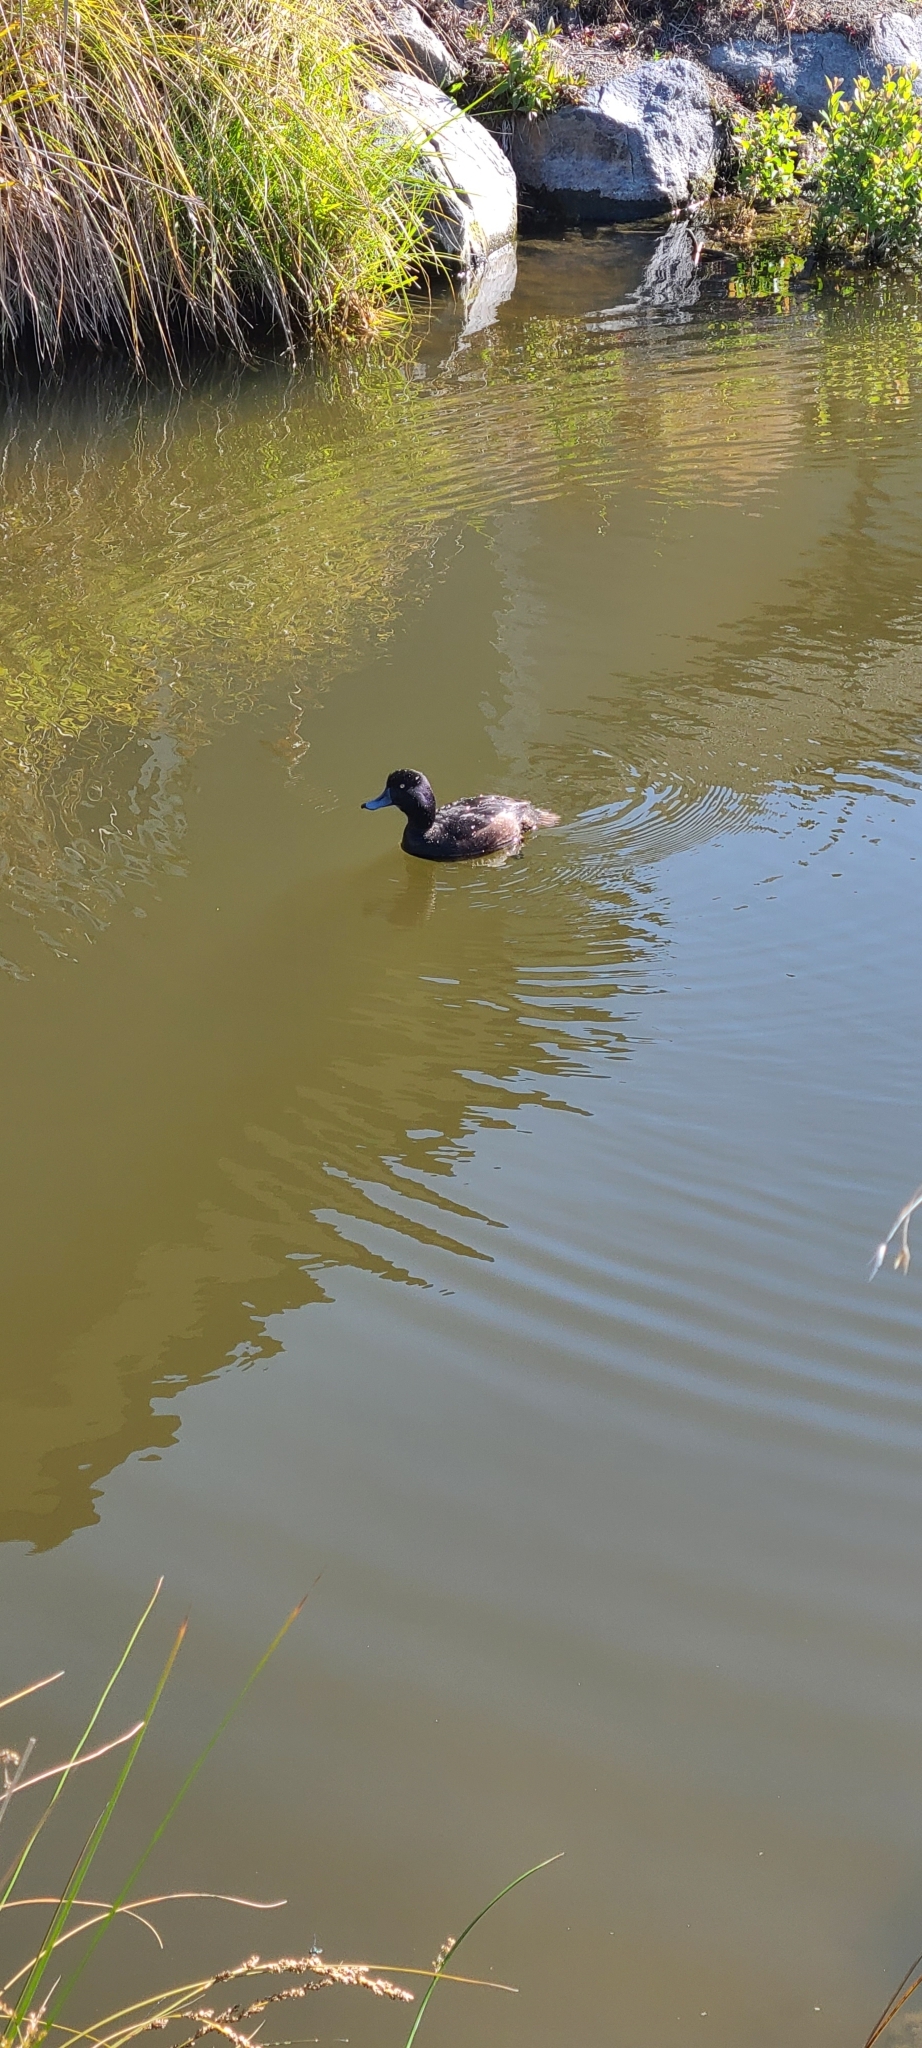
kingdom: Animalia
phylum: Chordata
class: Aves
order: Anseriformes
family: Anatidae
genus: Aythya
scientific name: Aythya novaeseelandiae
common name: New zealand scaup
